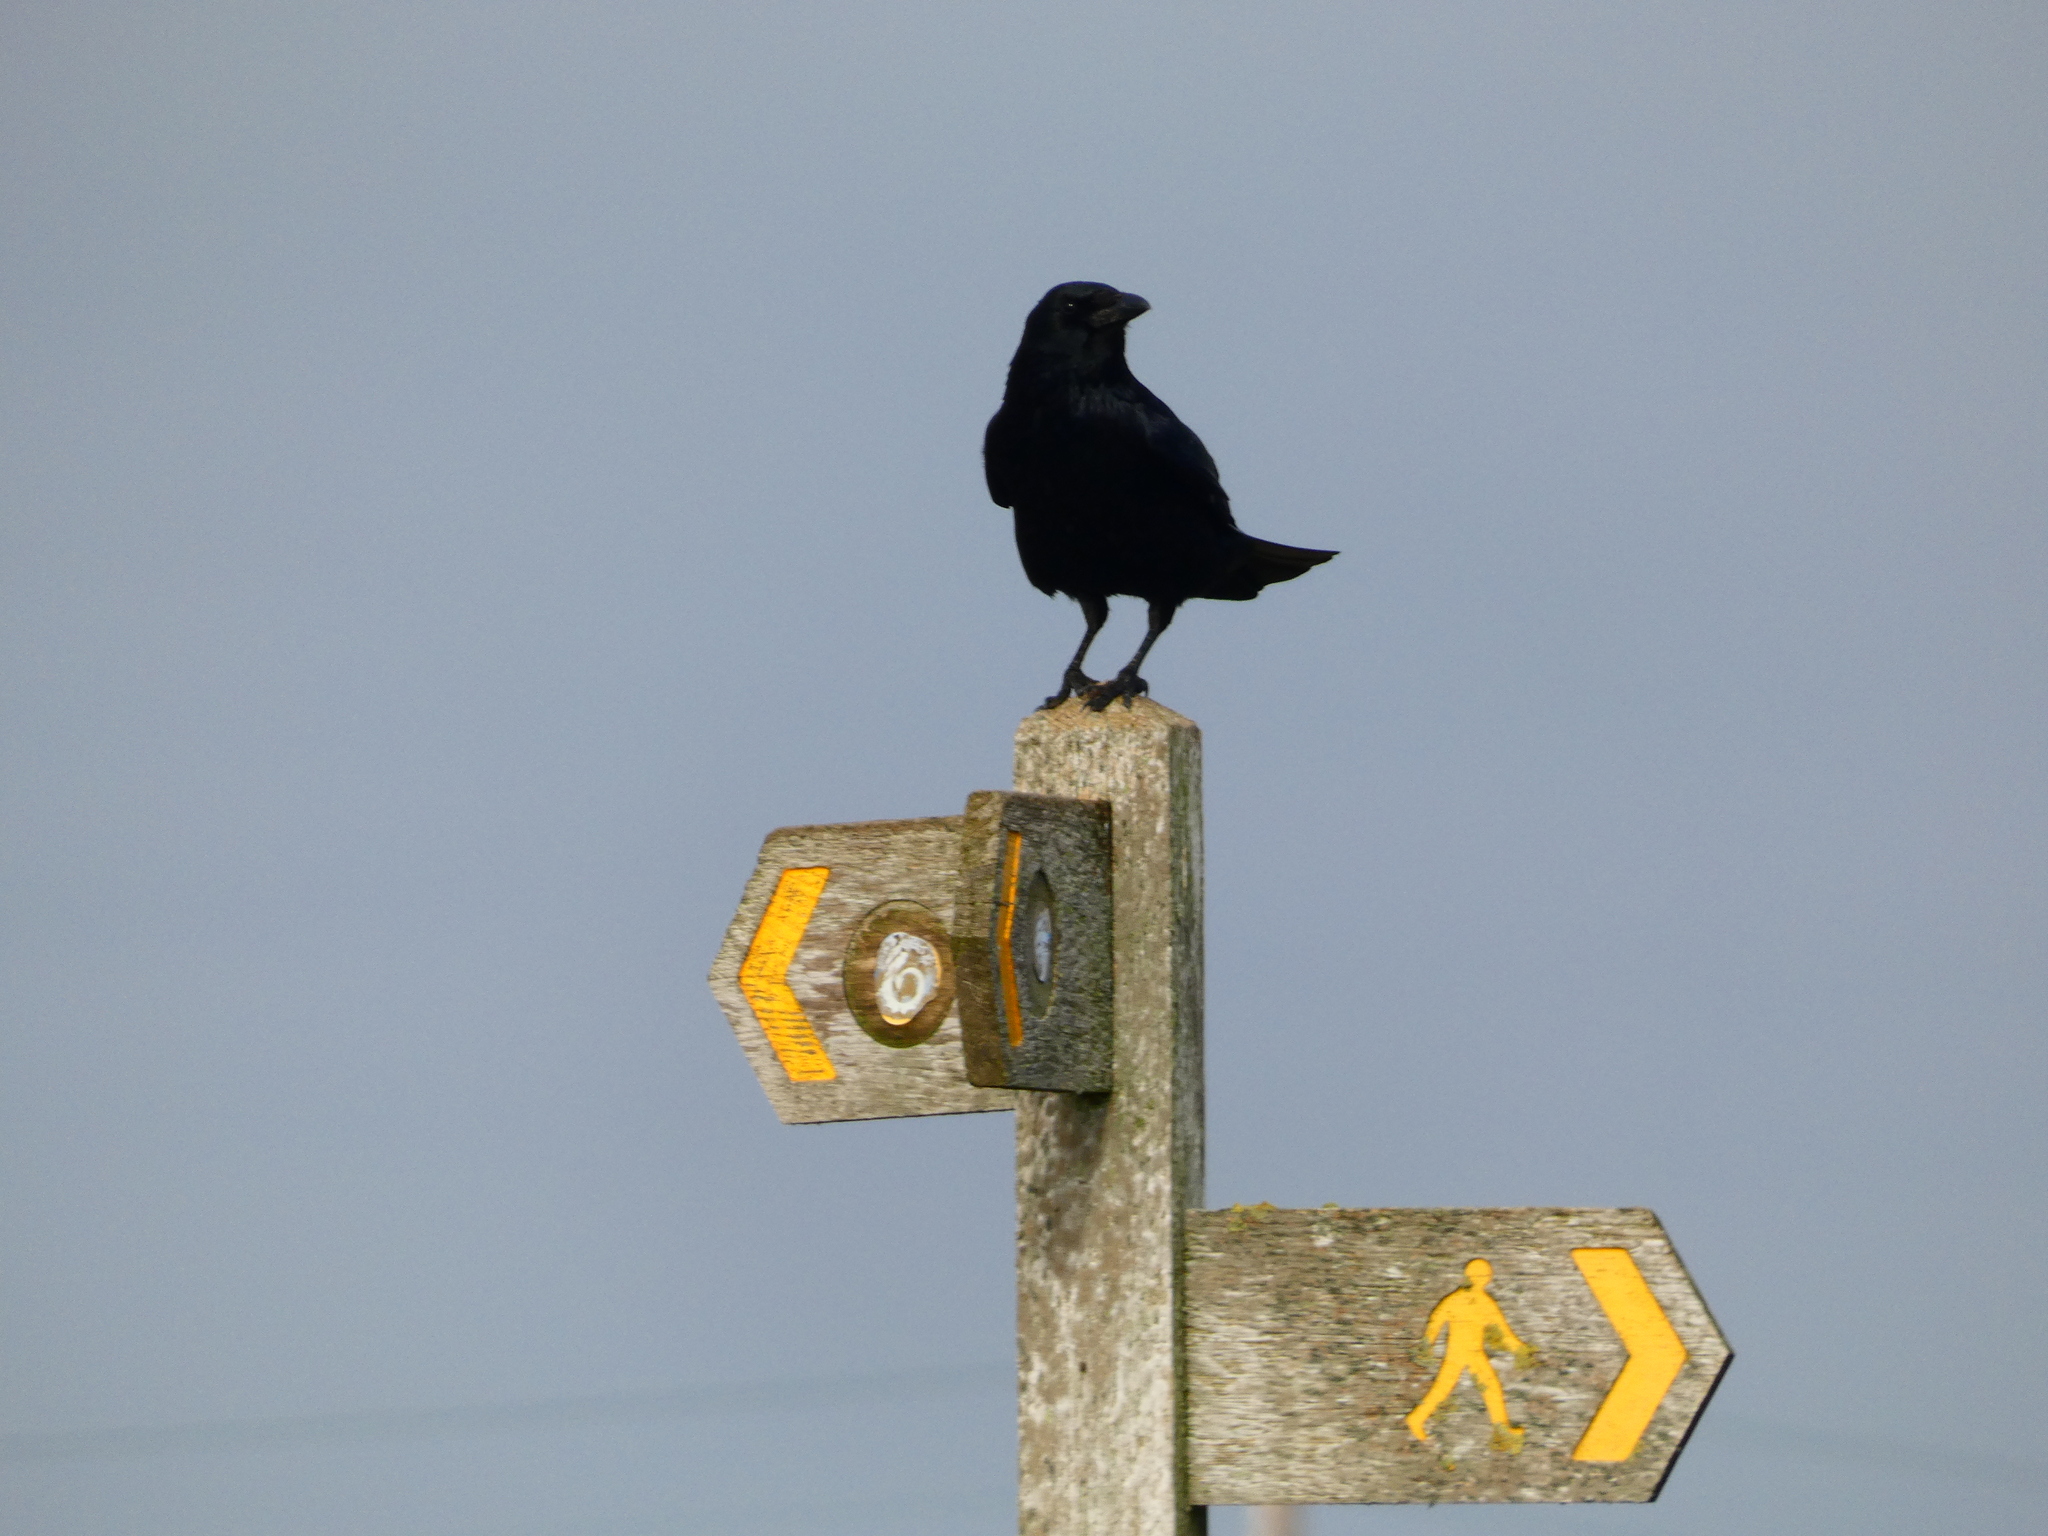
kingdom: Animalia
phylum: Chordata
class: Aves
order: Passeriformes
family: Corvidae
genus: Corvus
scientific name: Corvus corone
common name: Carrion crow
